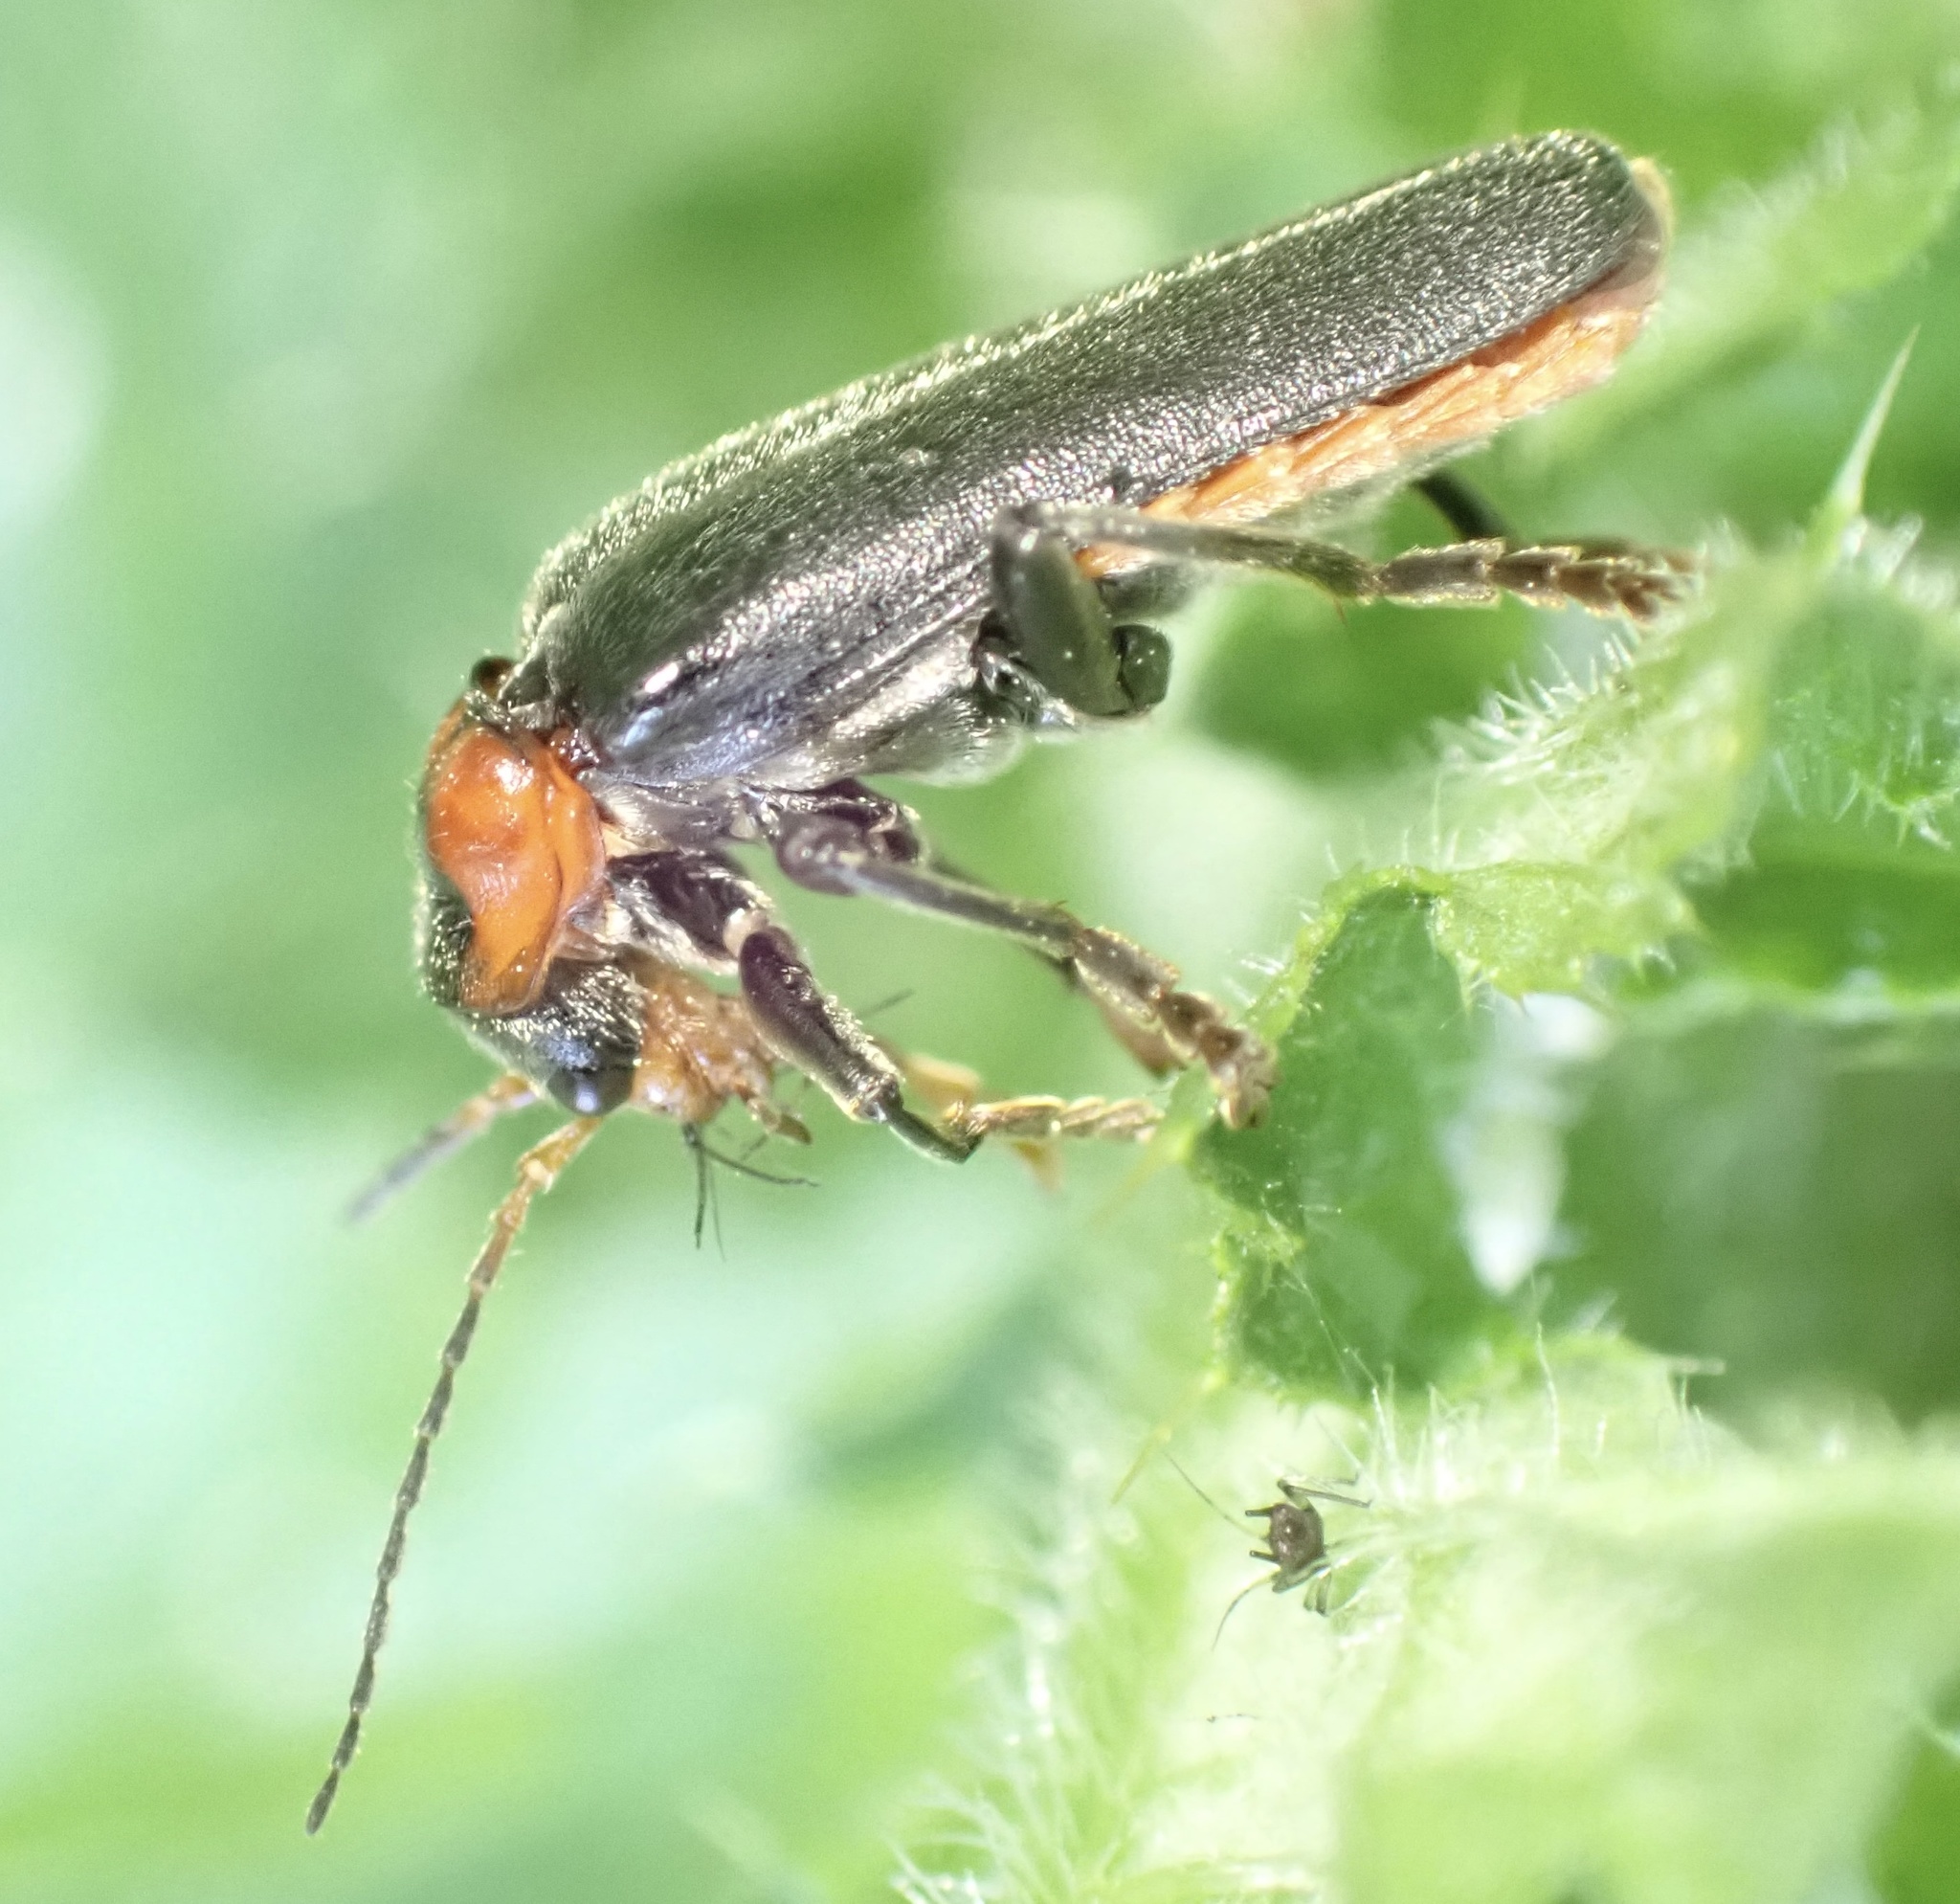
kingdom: Animalia
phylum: Arthropoda
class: Insecta
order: Coleoptera
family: Cantharidae
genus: Cantharis
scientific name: Cantharis fusca
